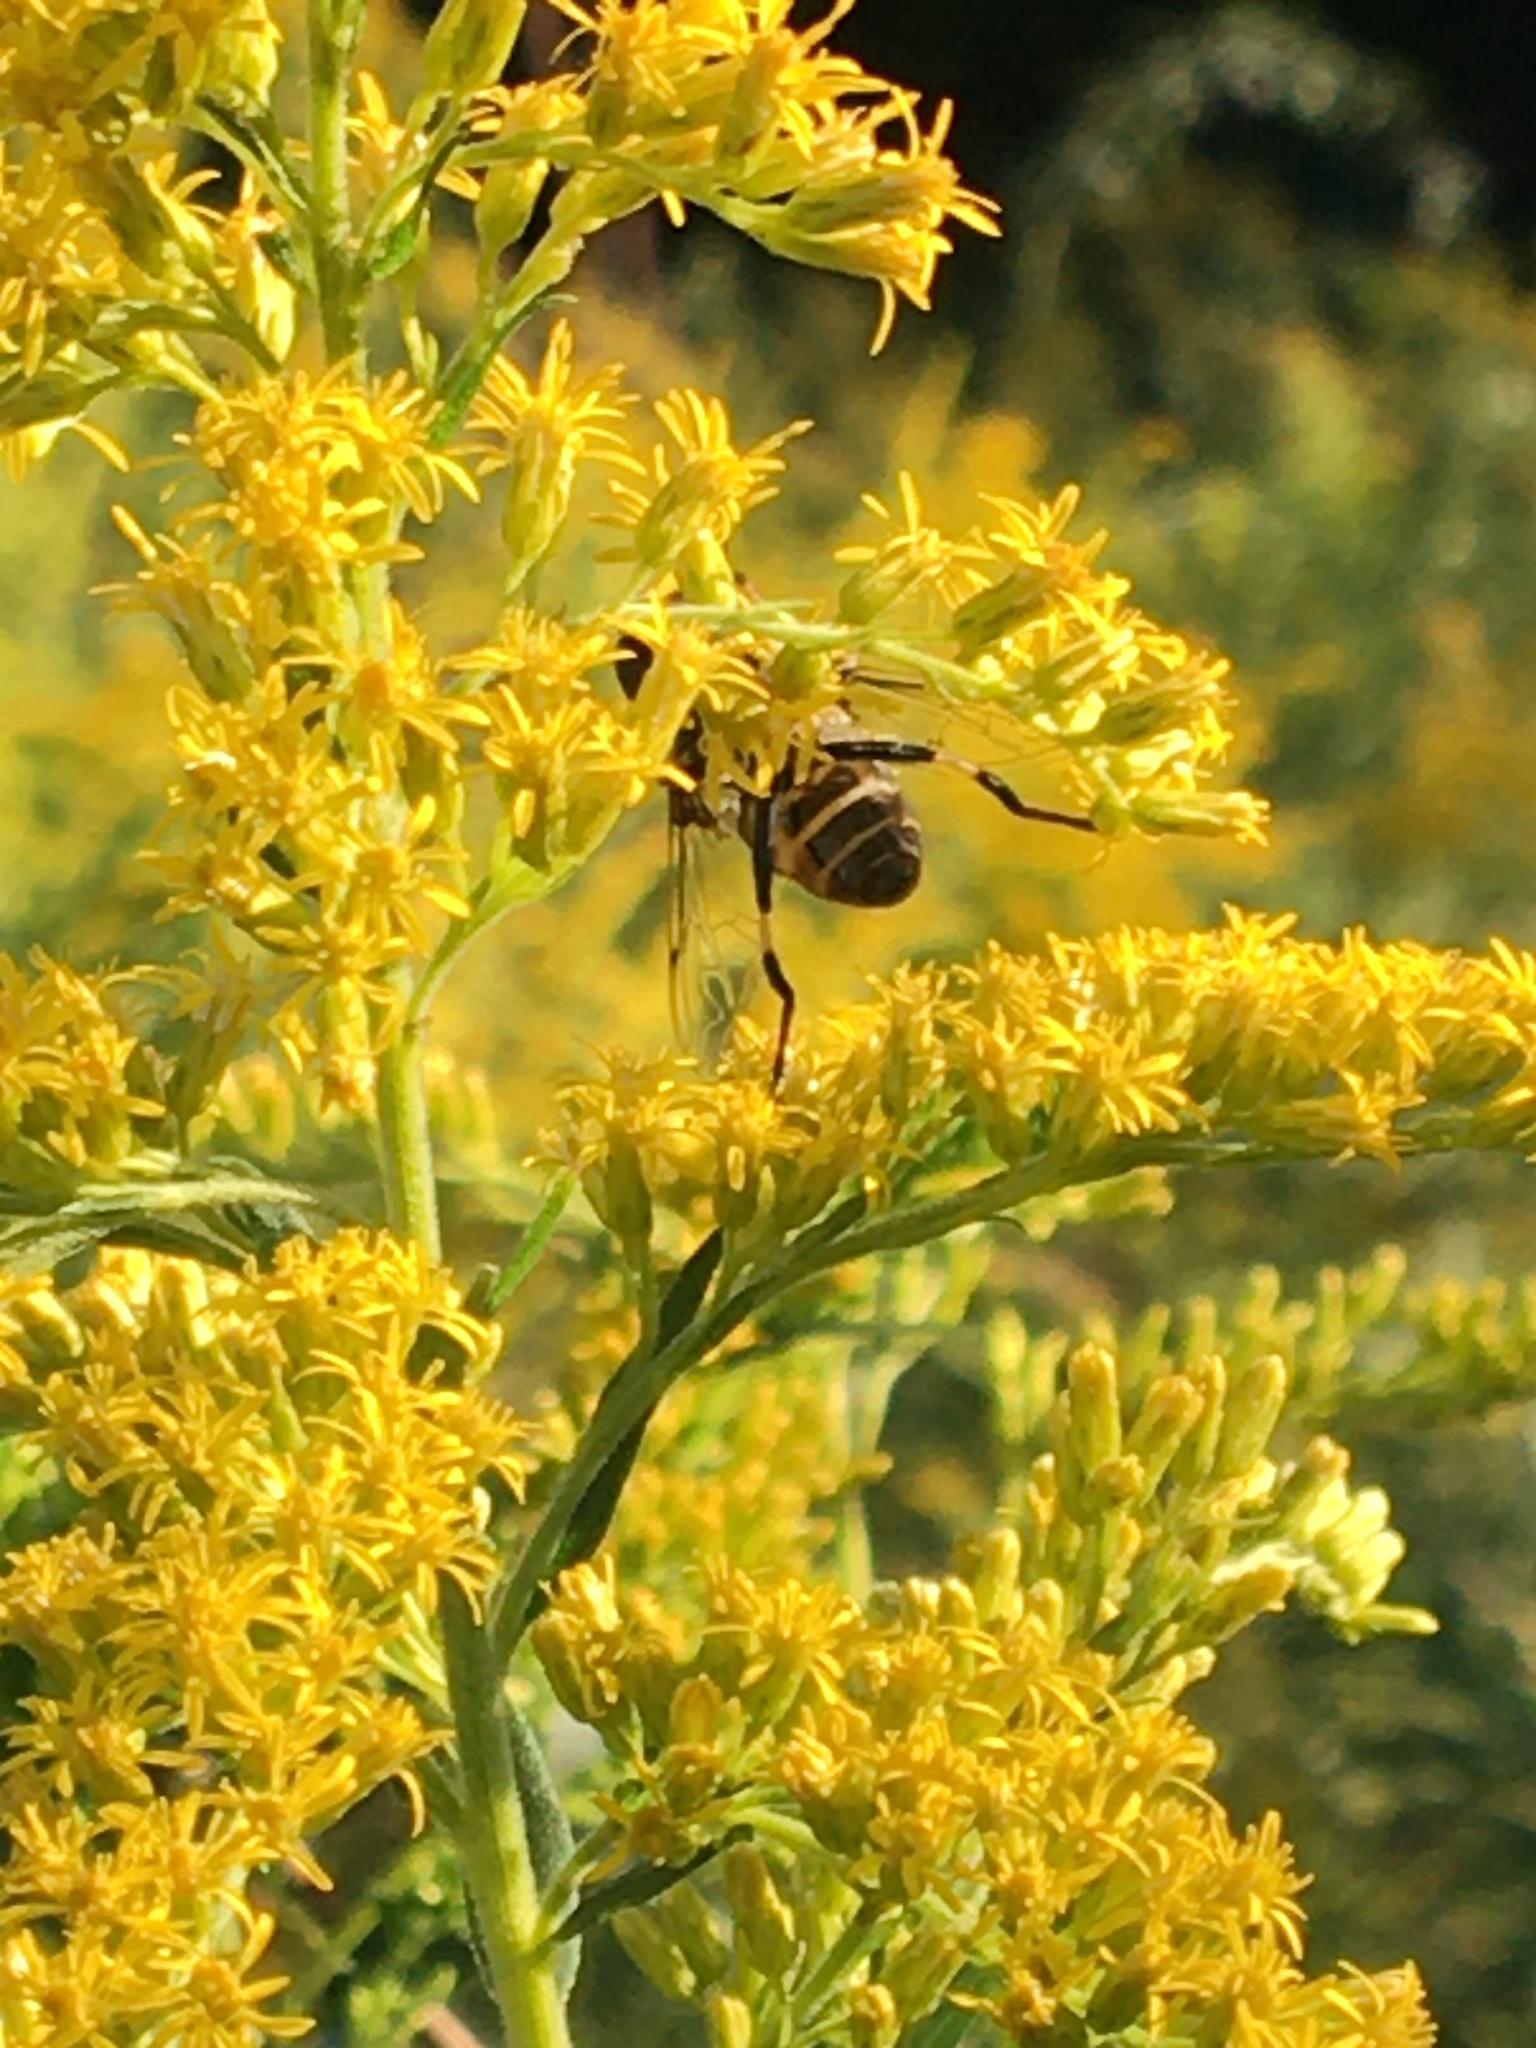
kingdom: Animalia
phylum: Arthropoda
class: Insecta
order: Diptera
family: Syrphidae
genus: Eristalis
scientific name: Eristalis dimidiata
